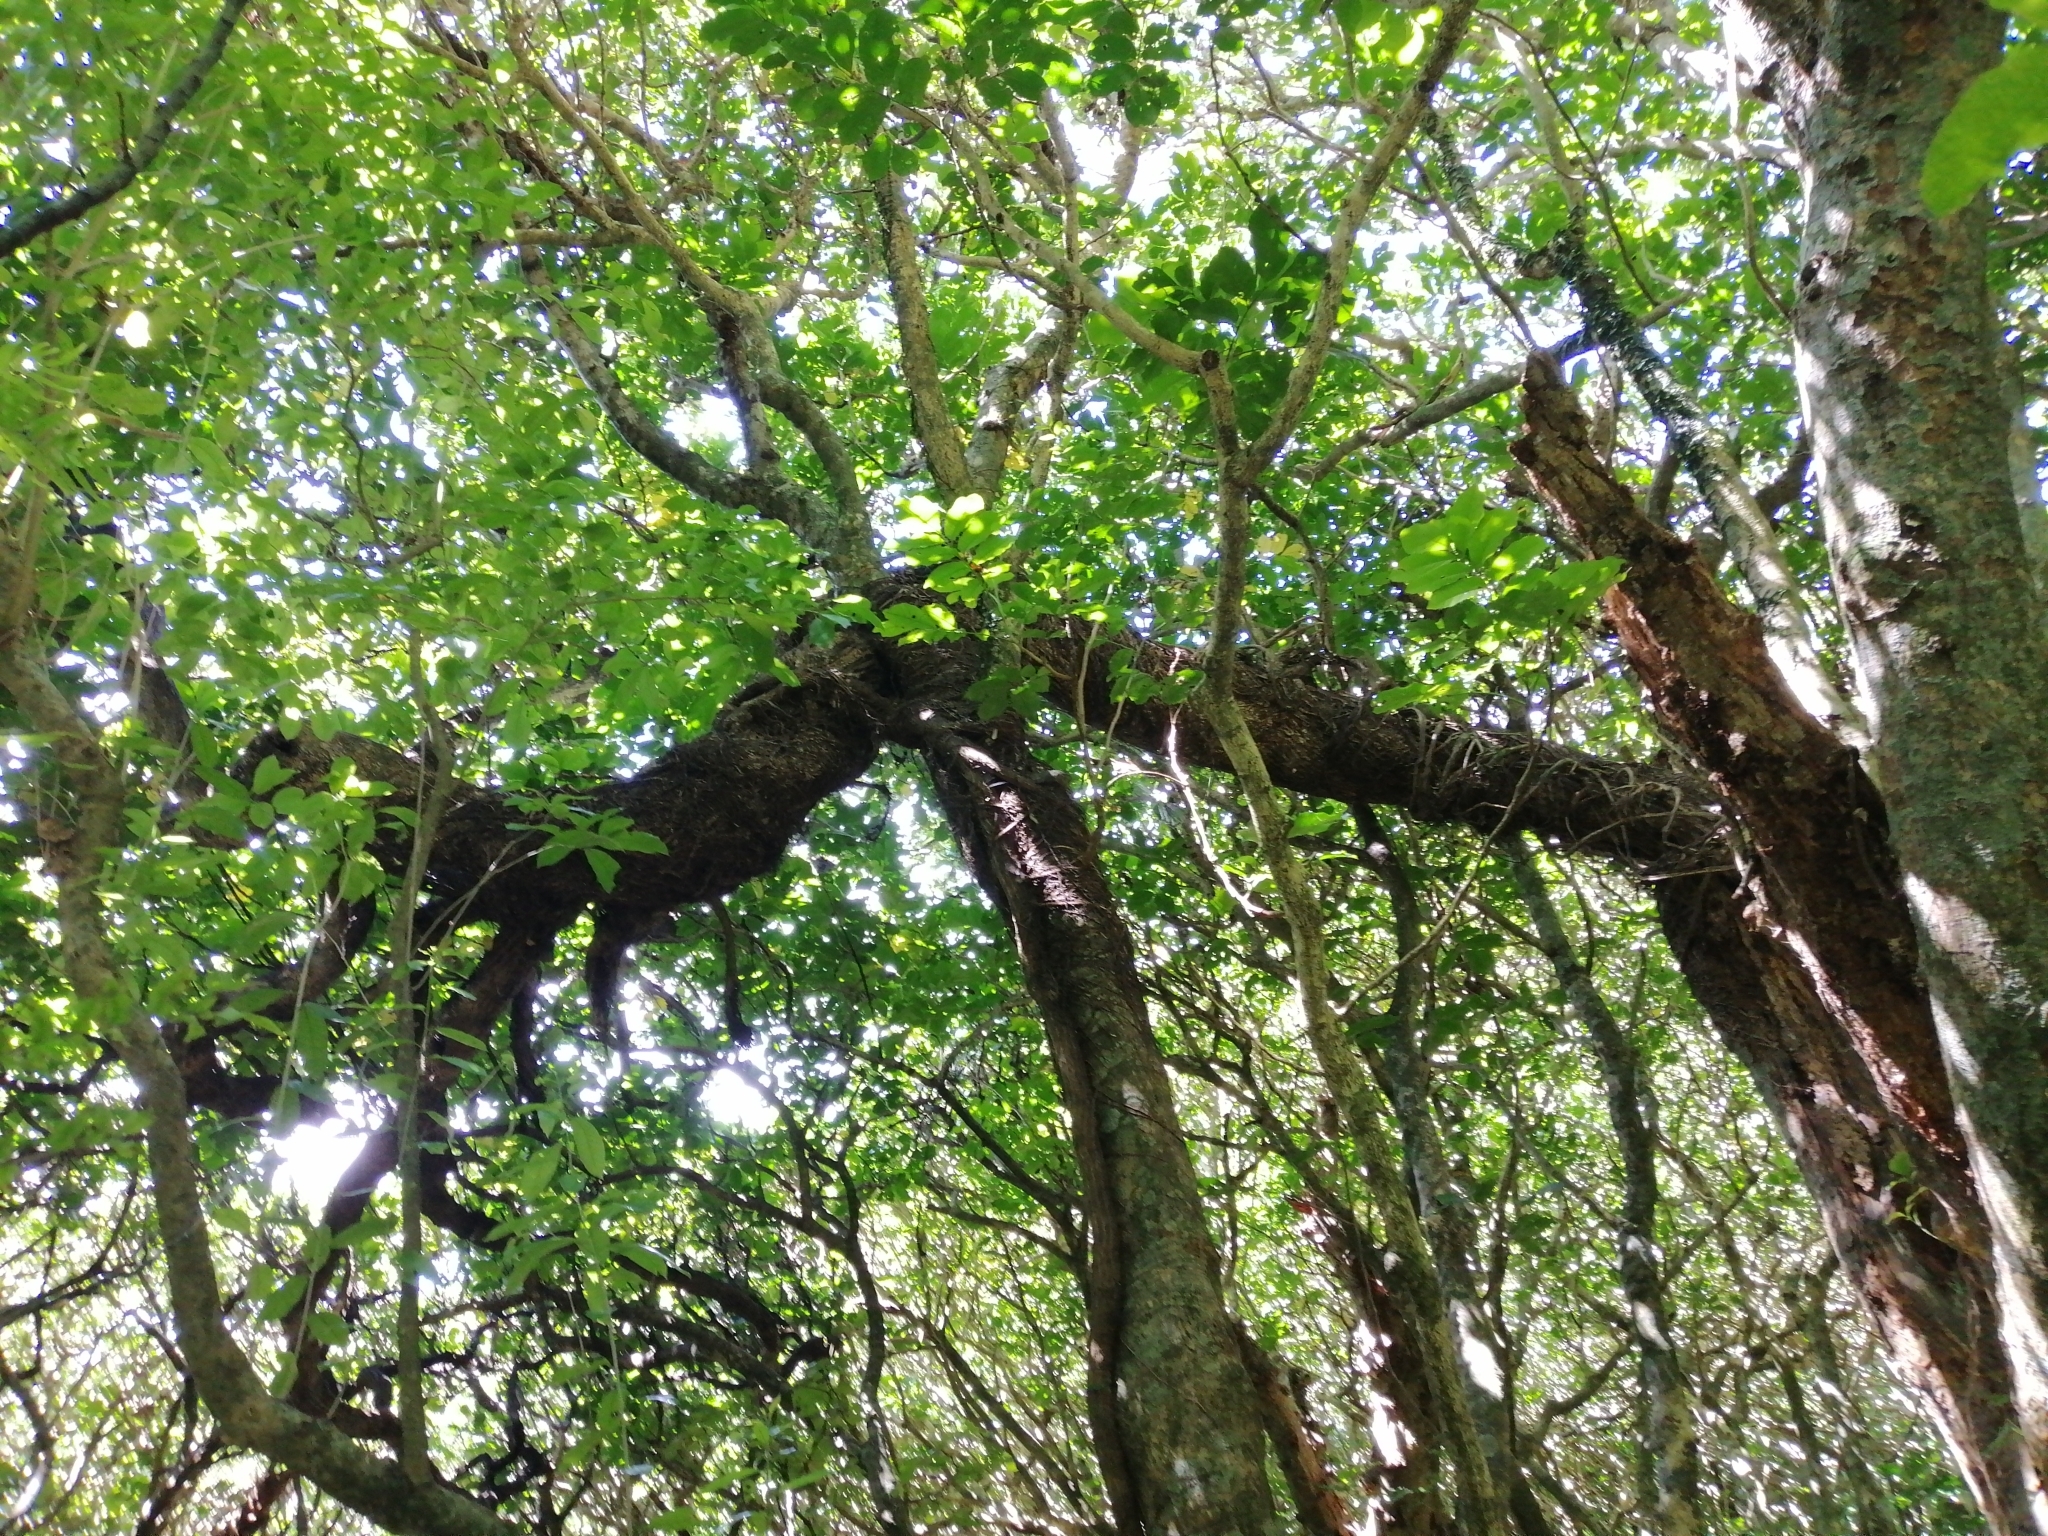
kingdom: Plantae
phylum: Tracheophyta
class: Magnoliopsida
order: Apiales
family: Griseliniaceae
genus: Griselinia
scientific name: Griselinia lucida
